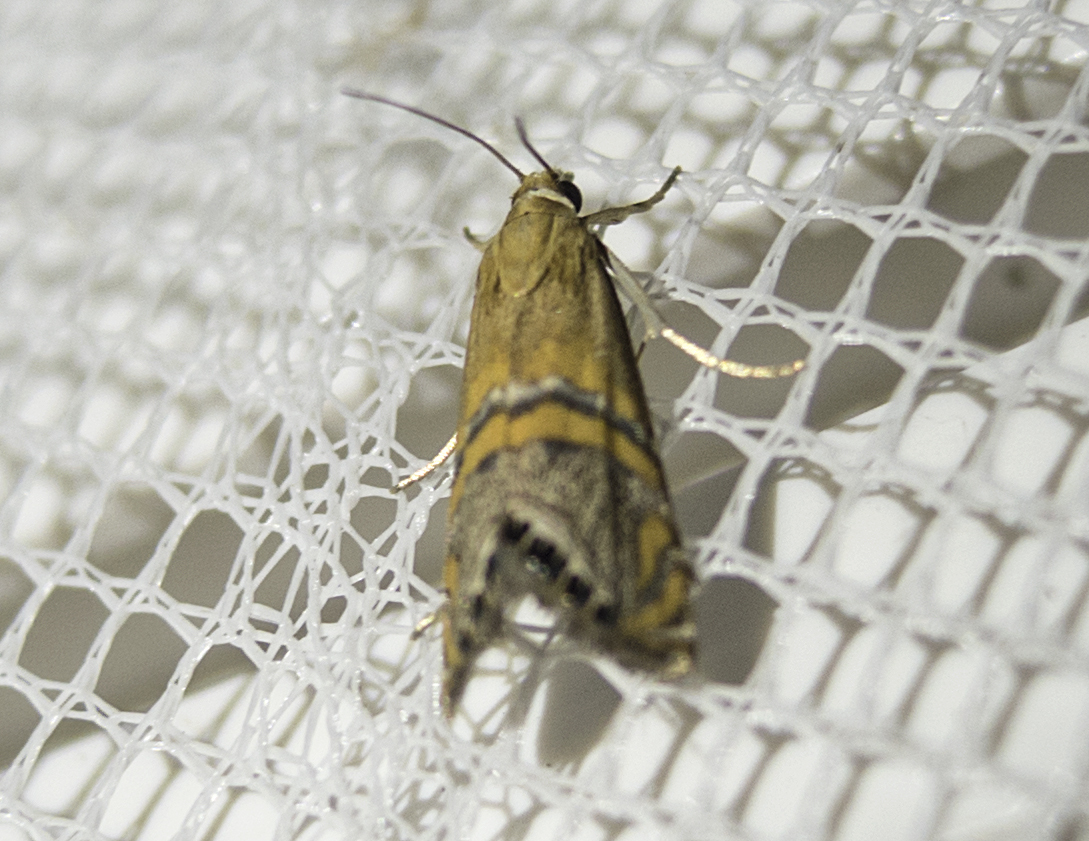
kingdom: Animalia
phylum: Arthropoda
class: Insecta
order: Lepidoptera
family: Crambidae
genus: Euchromius
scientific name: Euchromius bella
